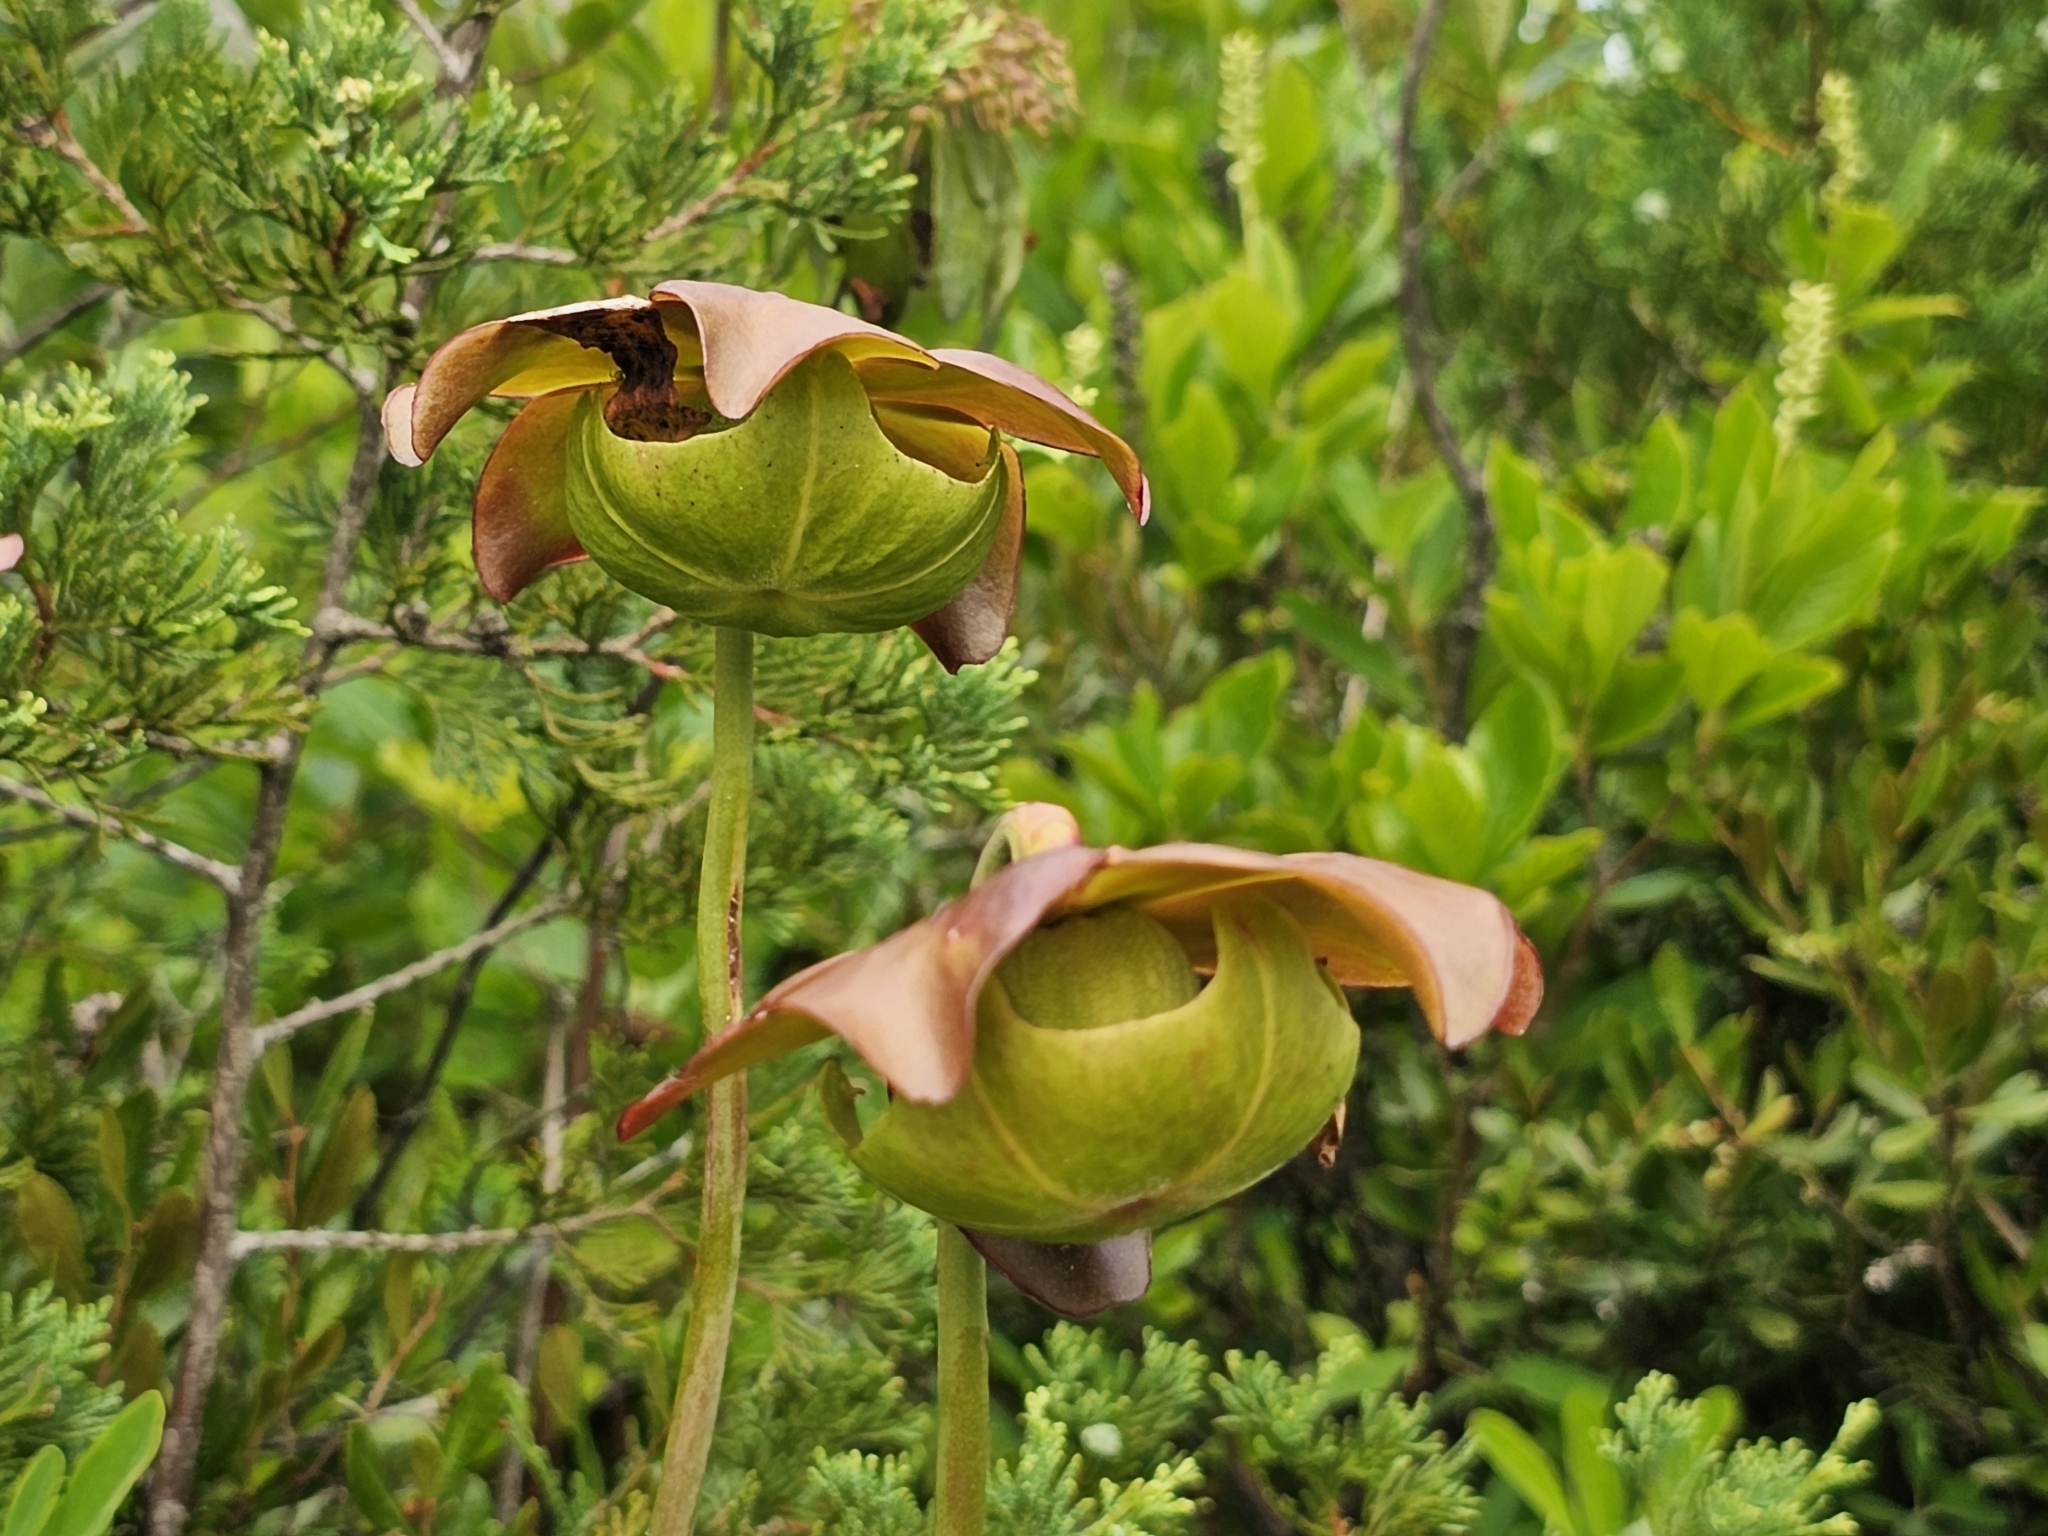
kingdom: Plantae
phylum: Tracheophyta
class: Magnoliopsida
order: Ericales
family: Sarraceniaceae
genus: Sarracenia
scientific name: Sarracenia purpurea
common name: Pitcherplant
